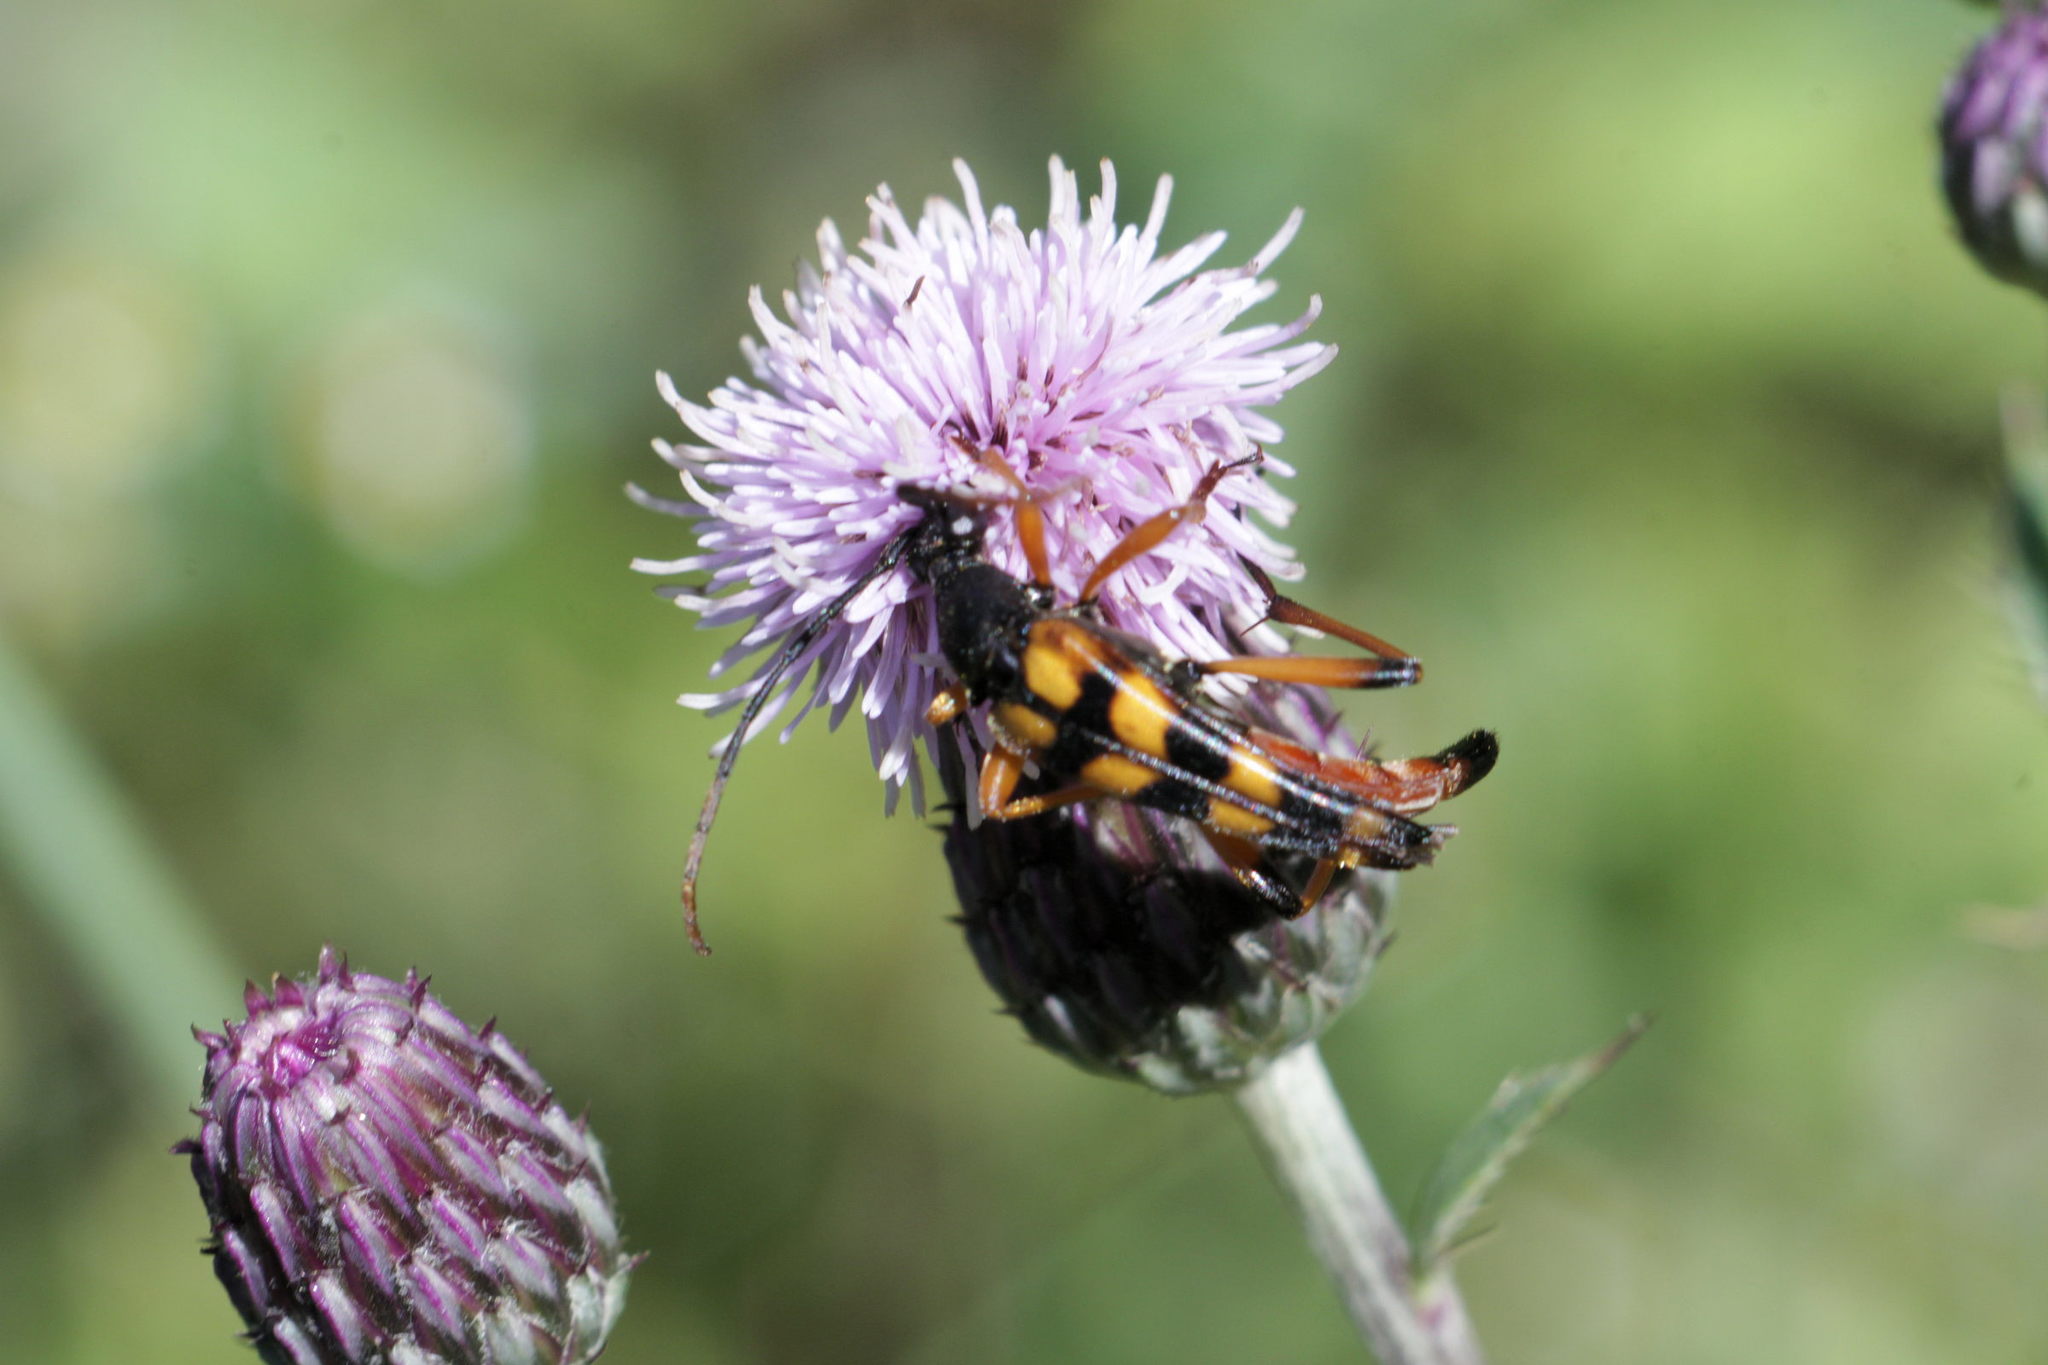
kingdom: Animalia
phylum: Arthropoda
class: Insecta
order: Coleoptera
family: Cerambycidae
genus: Strangalia
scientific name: Strangalia attenuata
